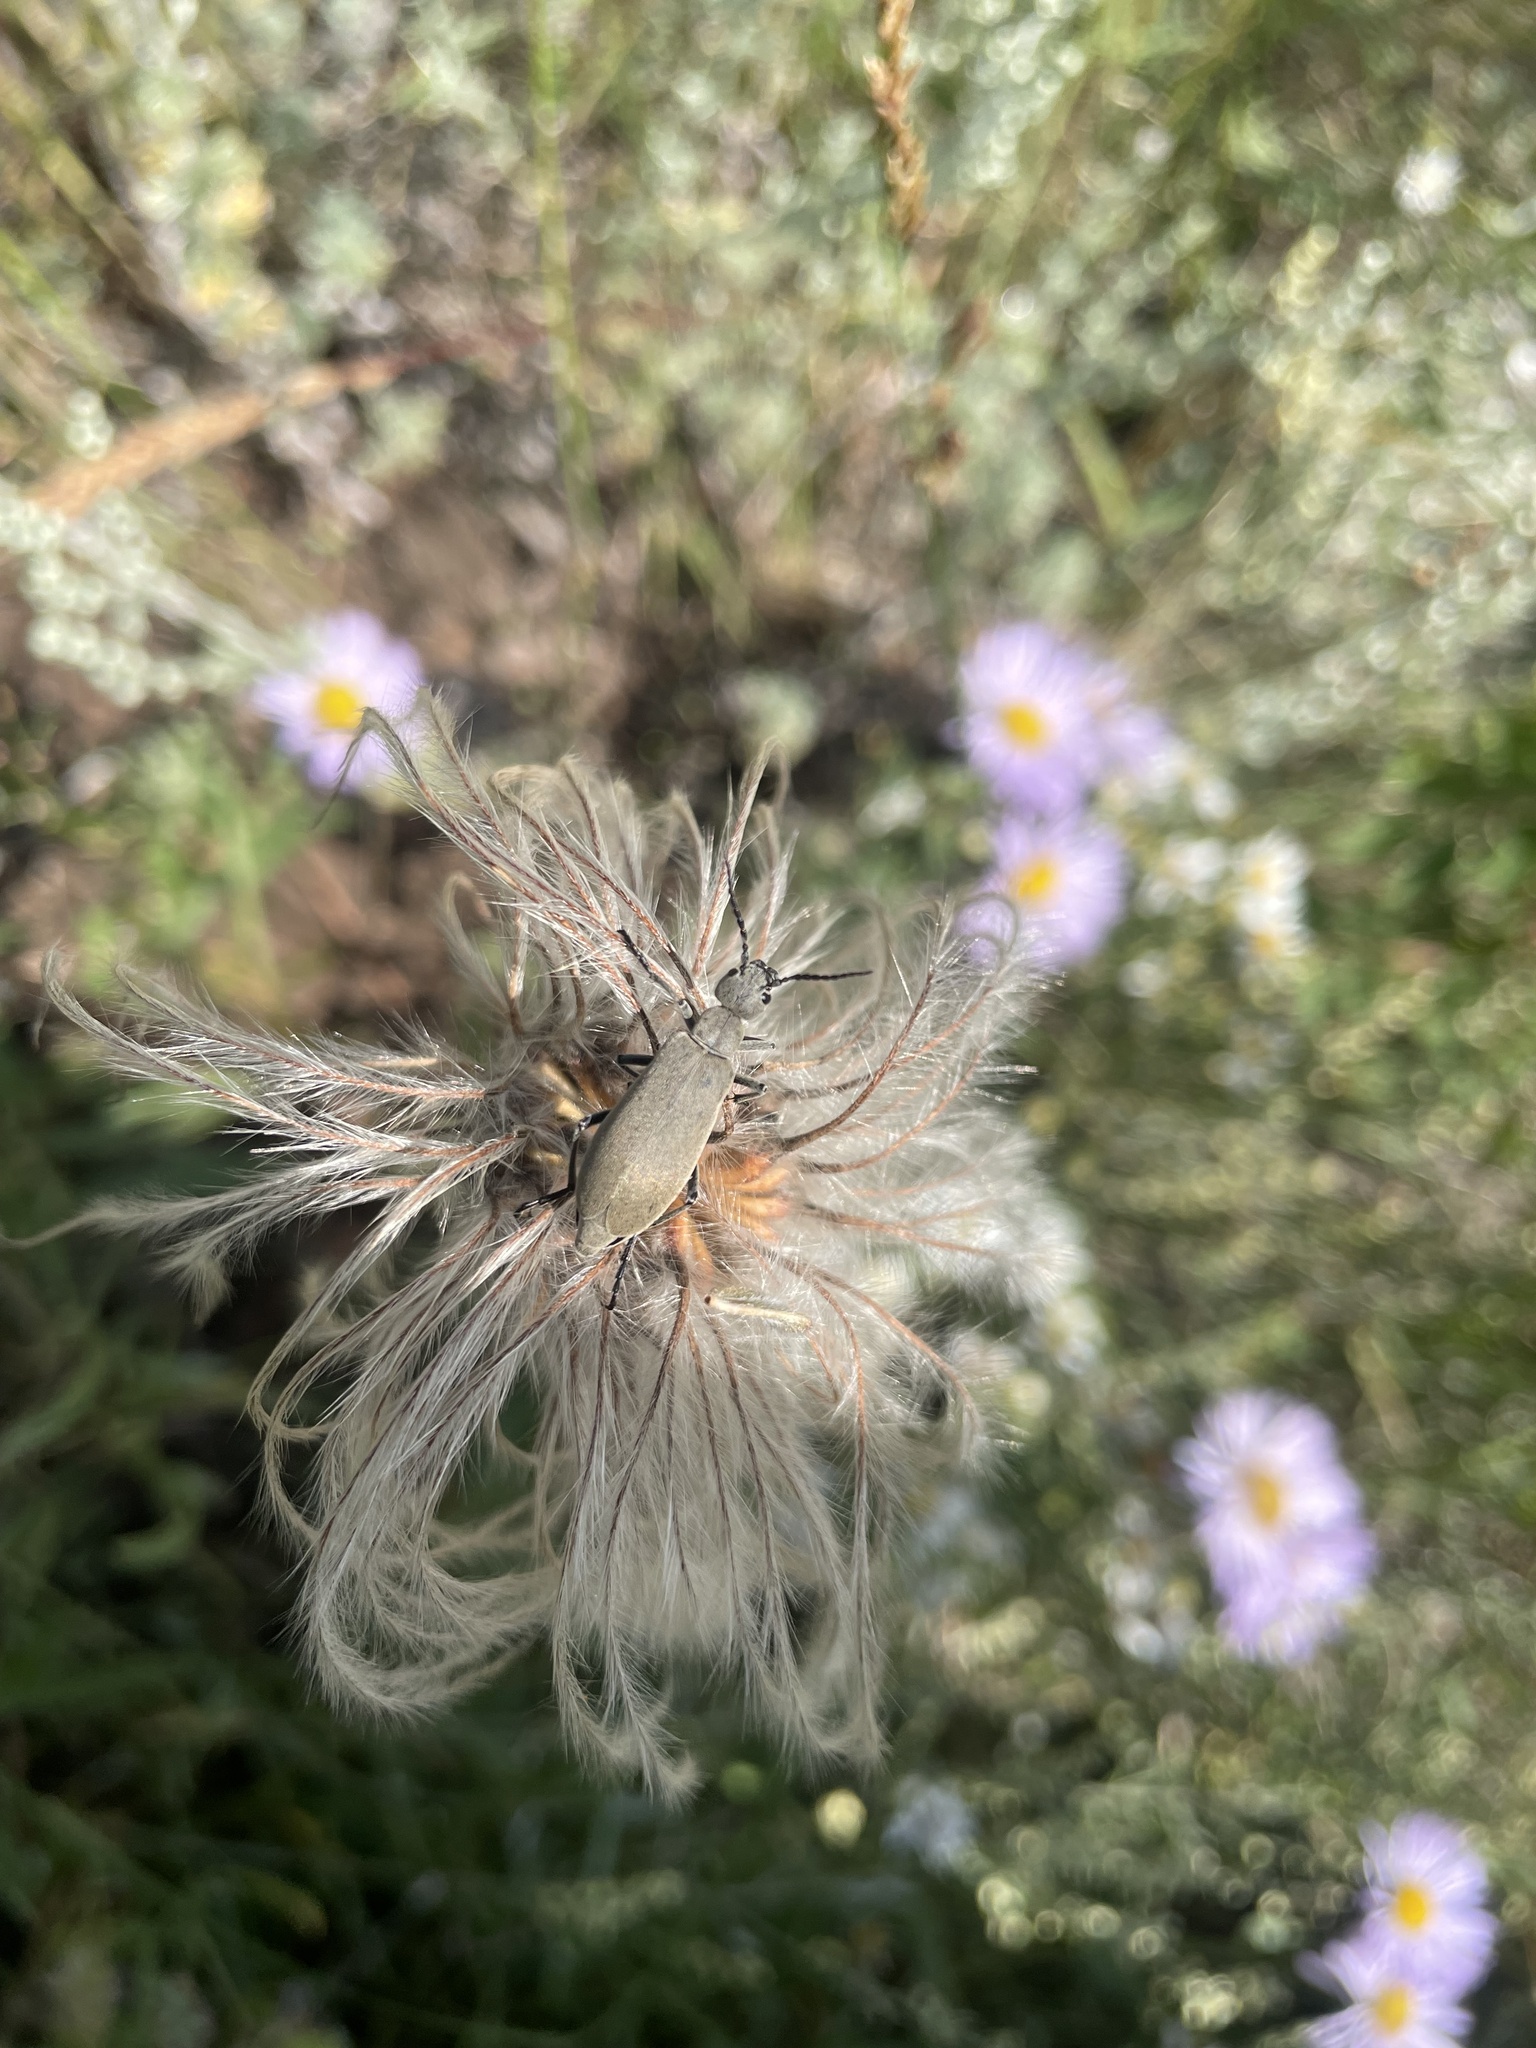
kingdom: Animalia
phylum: Arthropoda
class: Insecta
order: Coleoptera
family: Meloidae
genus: Epicauta
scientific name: Epicauta cinerea
